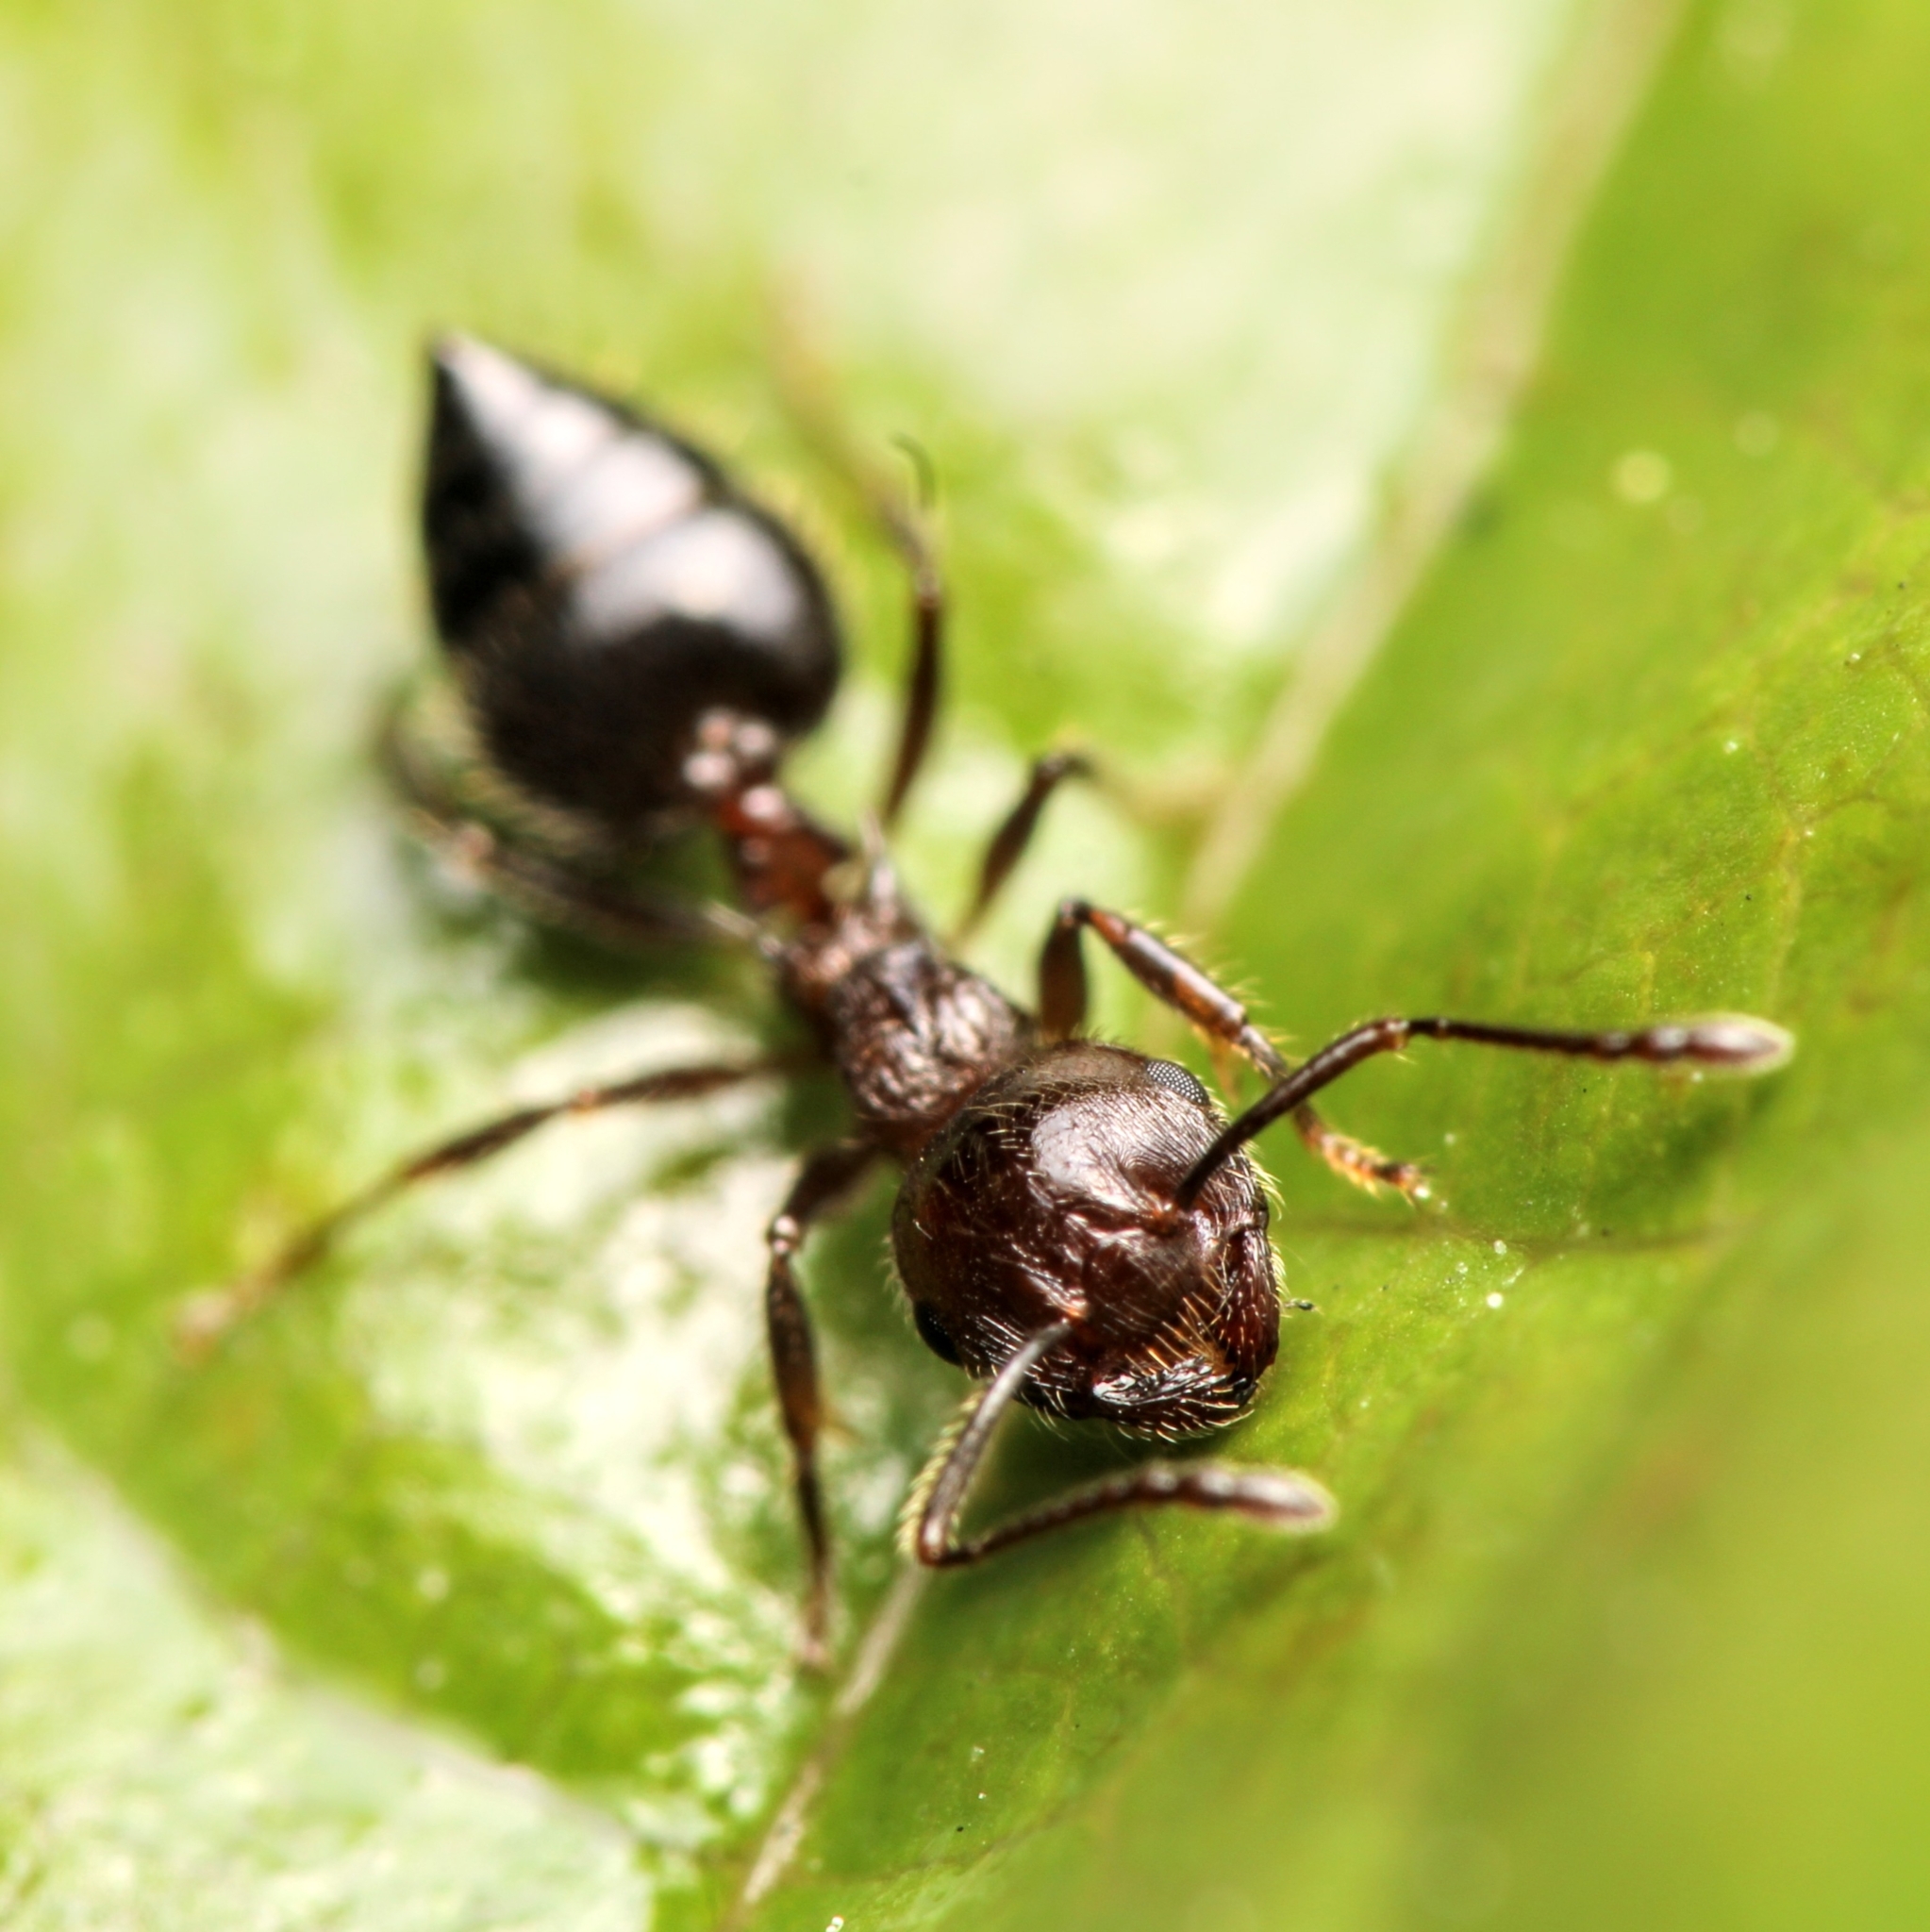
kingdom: Animalia
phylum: Arthropoda
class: Insecta
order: Hymenoptera
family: Formicidae
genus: Crematogaster
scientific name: Crematogaster pilosa
